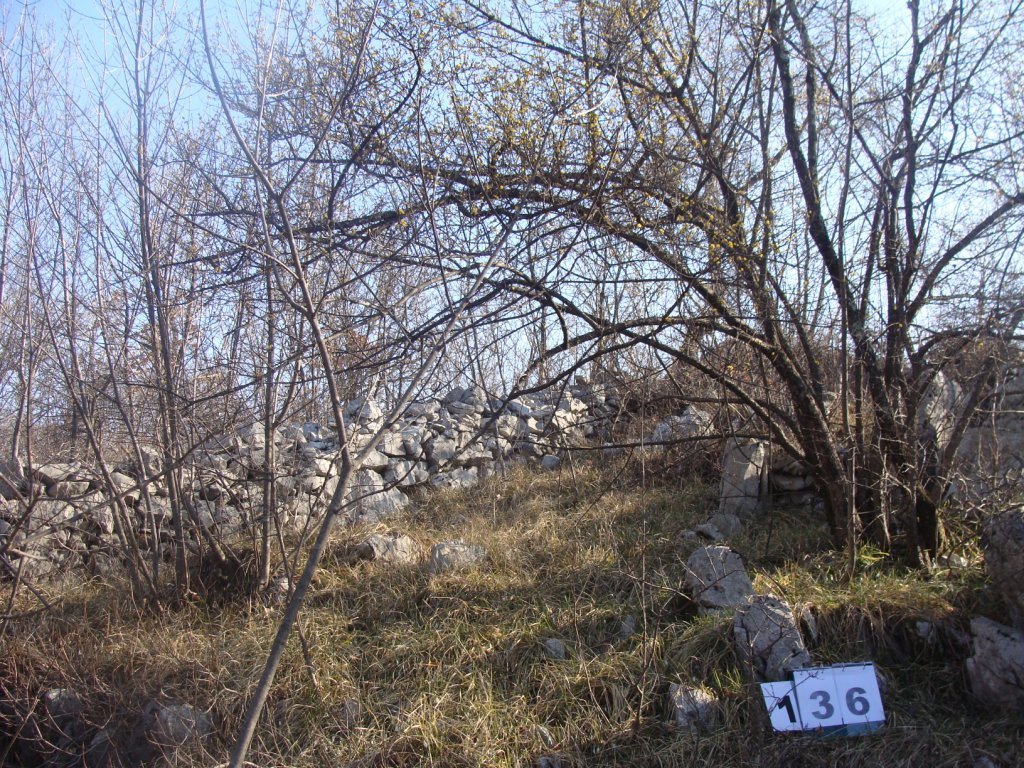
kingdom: Plantae
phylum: Tracheophyta
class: Magnoliopsida
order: Cornales
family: Cornaceae
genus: Cornus
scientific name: Cornus mas
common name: Cornelian-cherry
